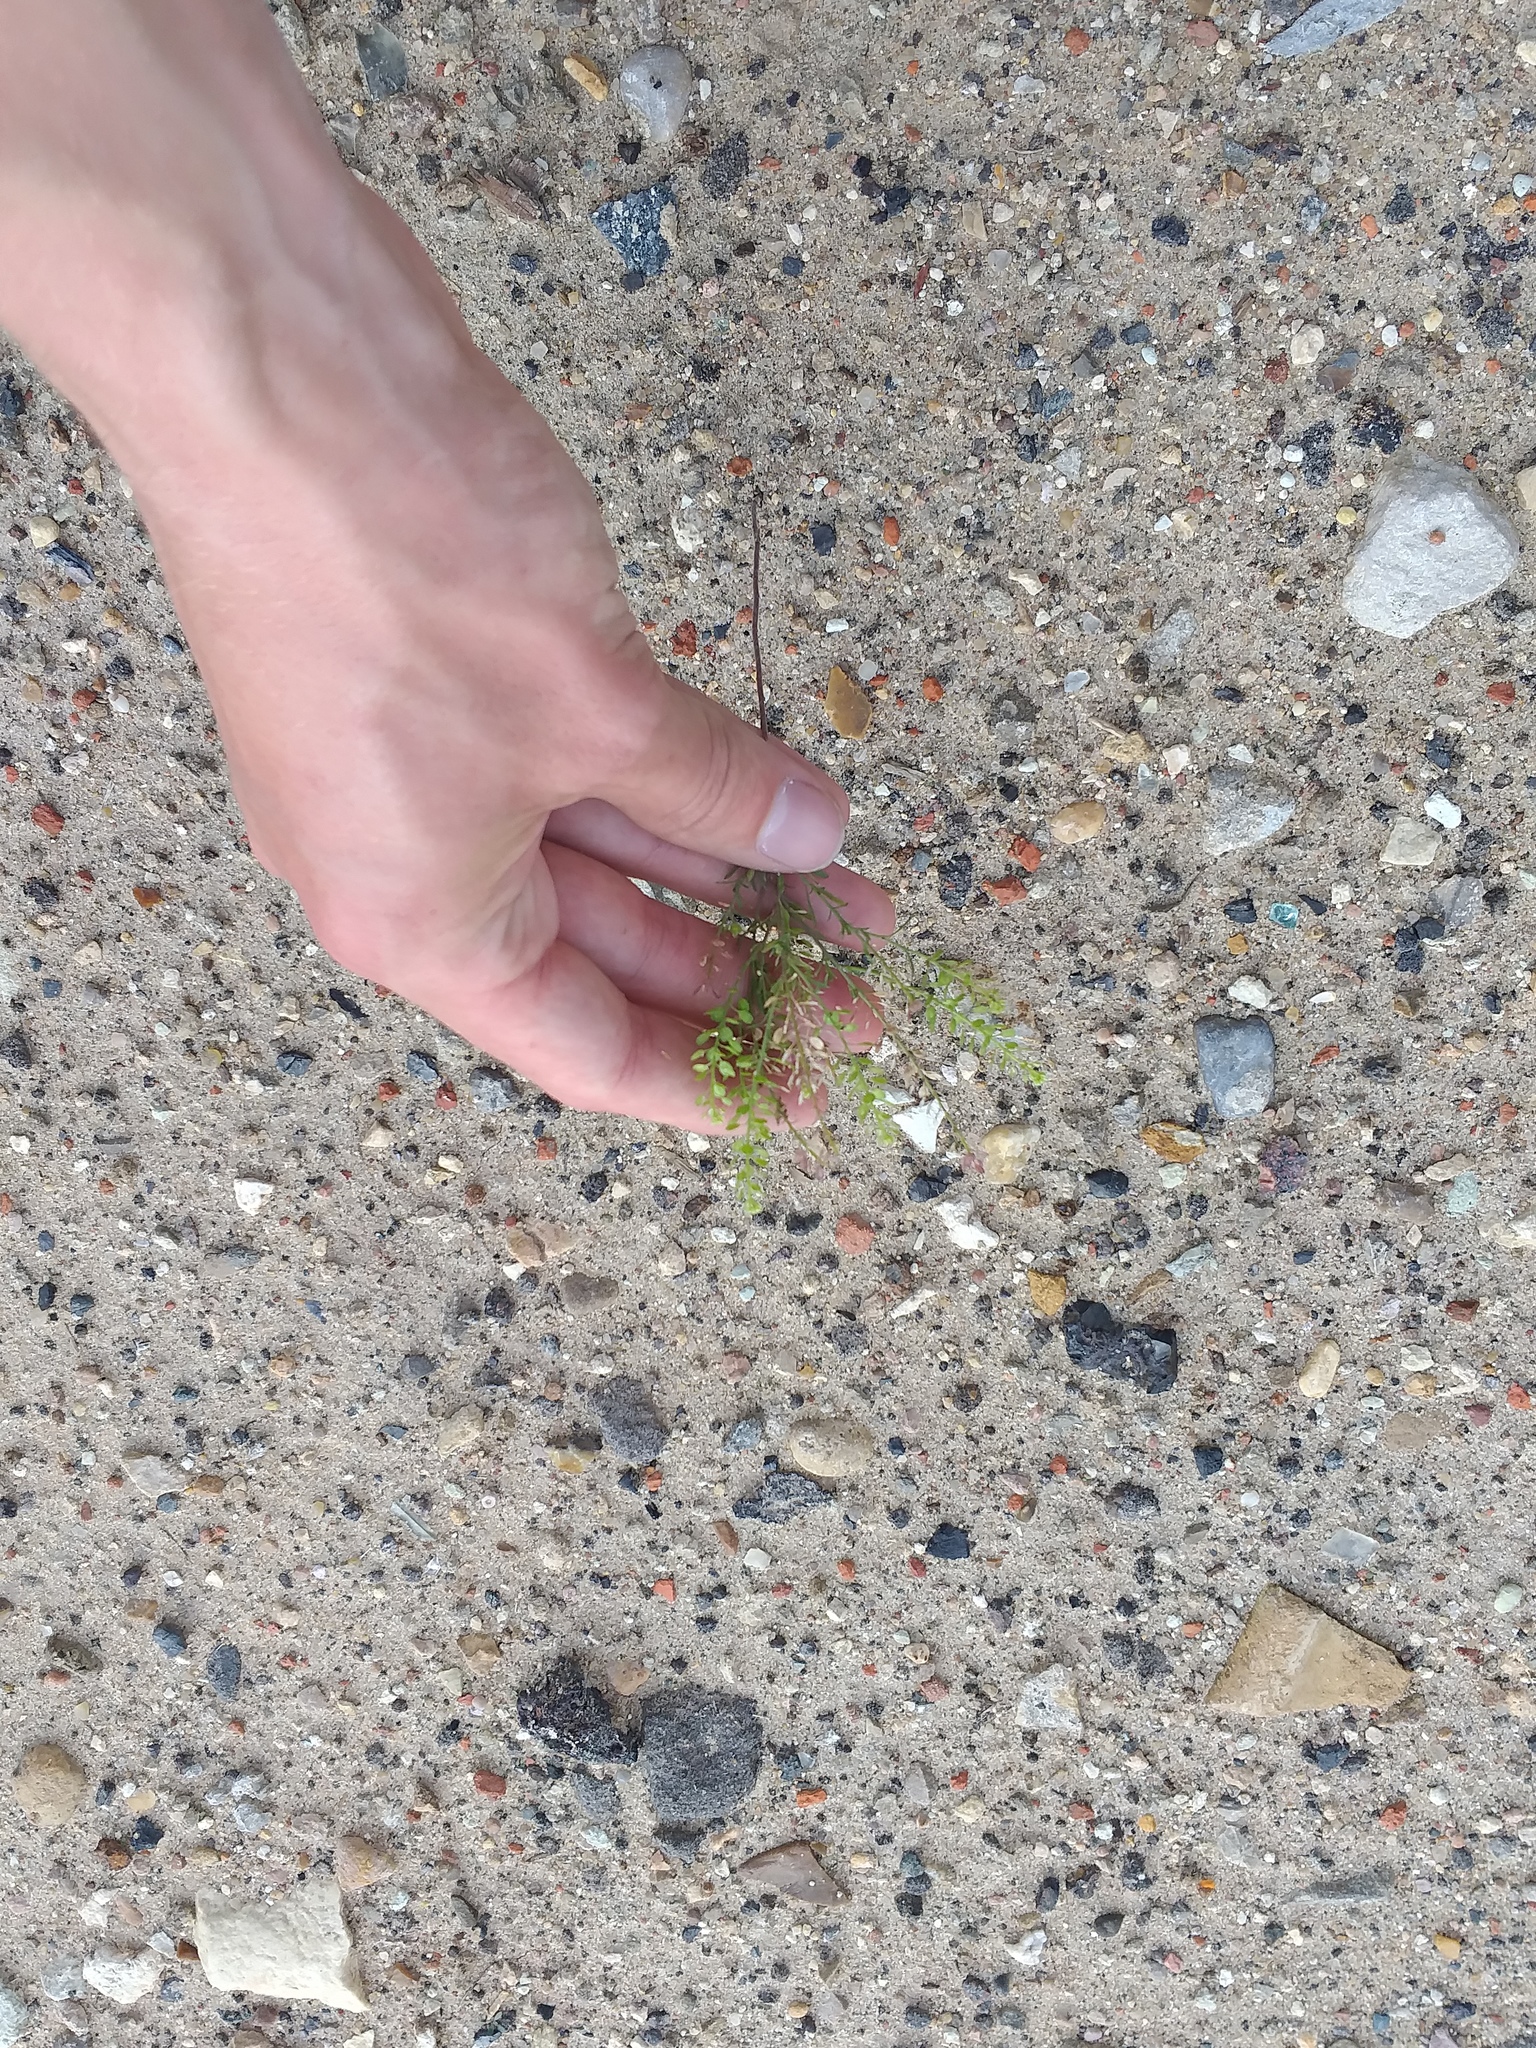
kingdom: Plantae
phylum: Tracheophyta
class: Magnoliopsida
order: Brassicales
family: Brassicaceae
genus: Lepidium
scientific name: Lepidium densiflorum
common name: Miner's pepperwort
